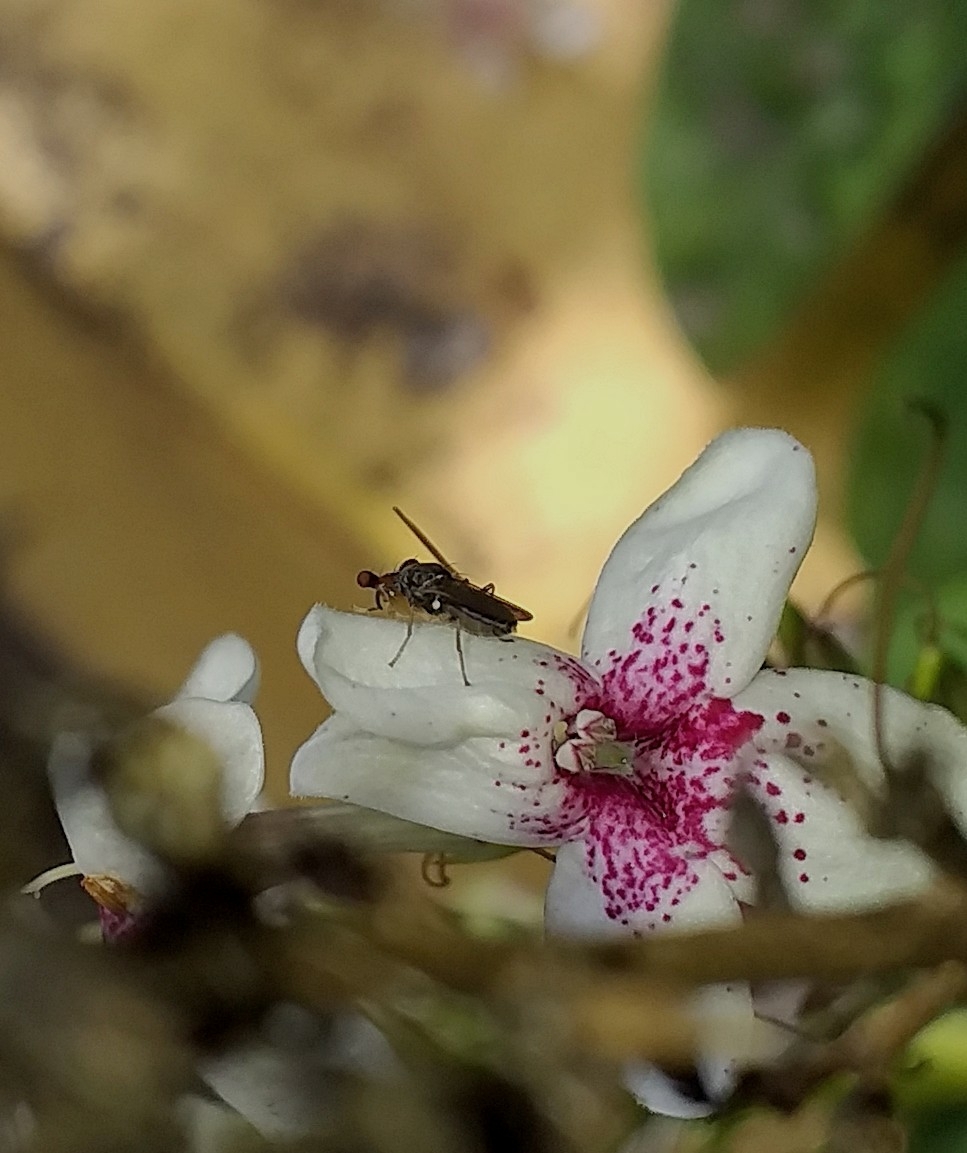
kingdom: Animalia
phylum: Arthropoda
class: Insecta
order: Diptera
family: Diopsidae
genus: Sphyracephala
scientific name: Sphyracephala hearseiana
